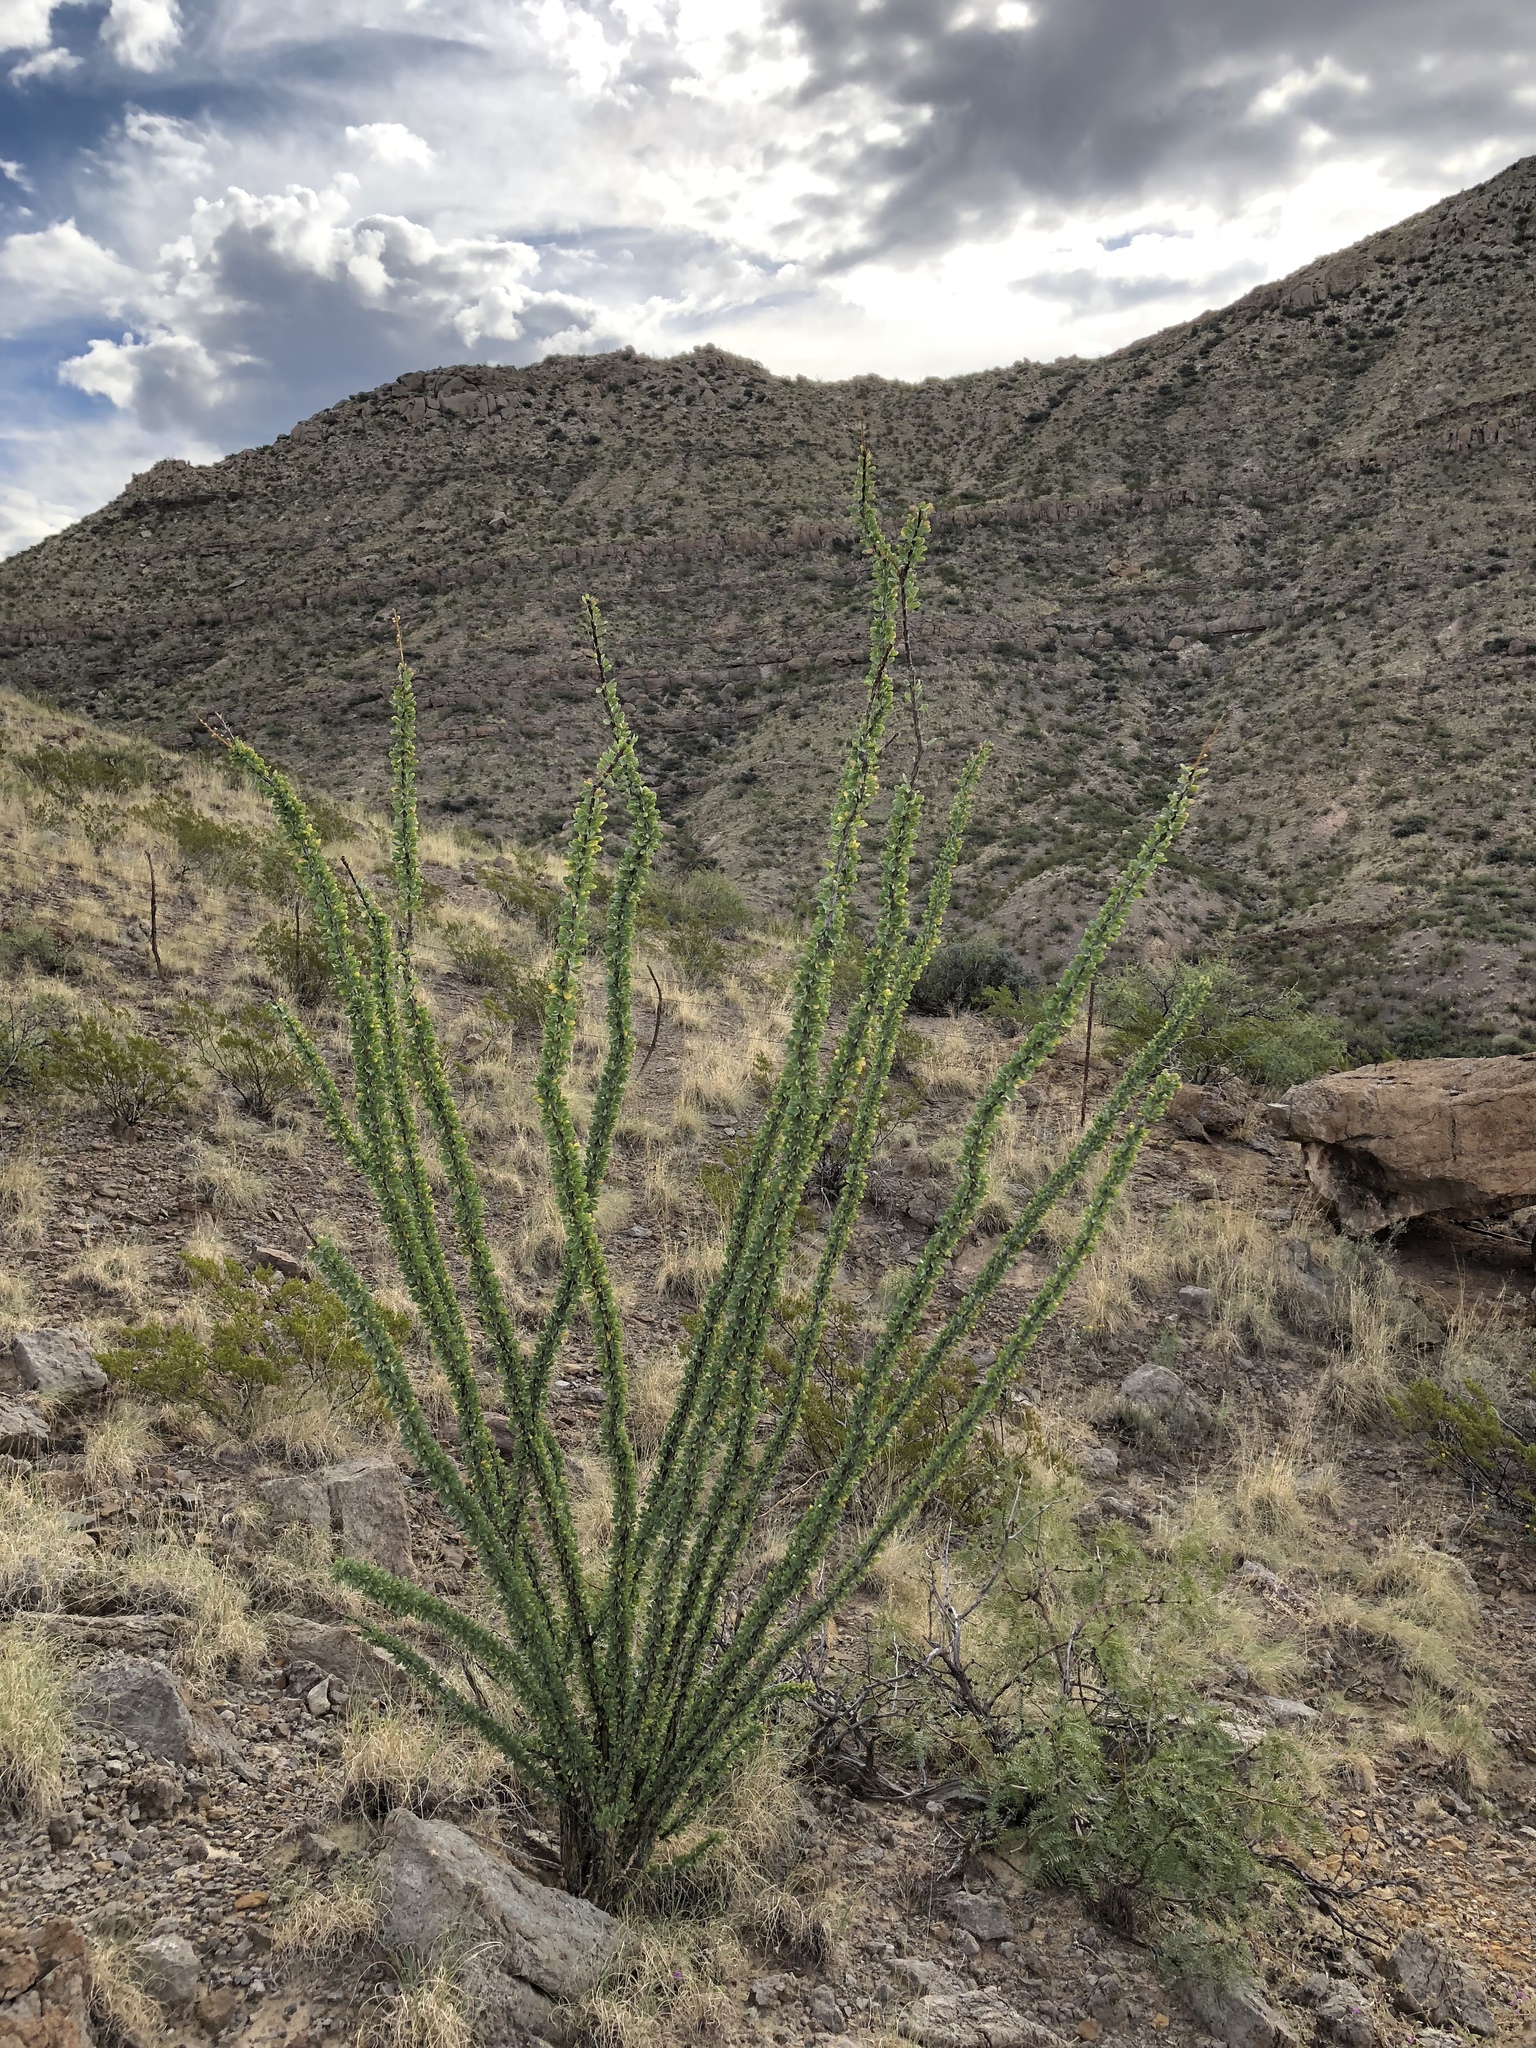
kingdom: Plantae
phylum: Tracheophyta
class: Magnoliopsida
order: Ericales
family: Fouquieriaceae
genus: Fouquieria
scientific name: Fouquieria splendens
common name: Vine-cactus
